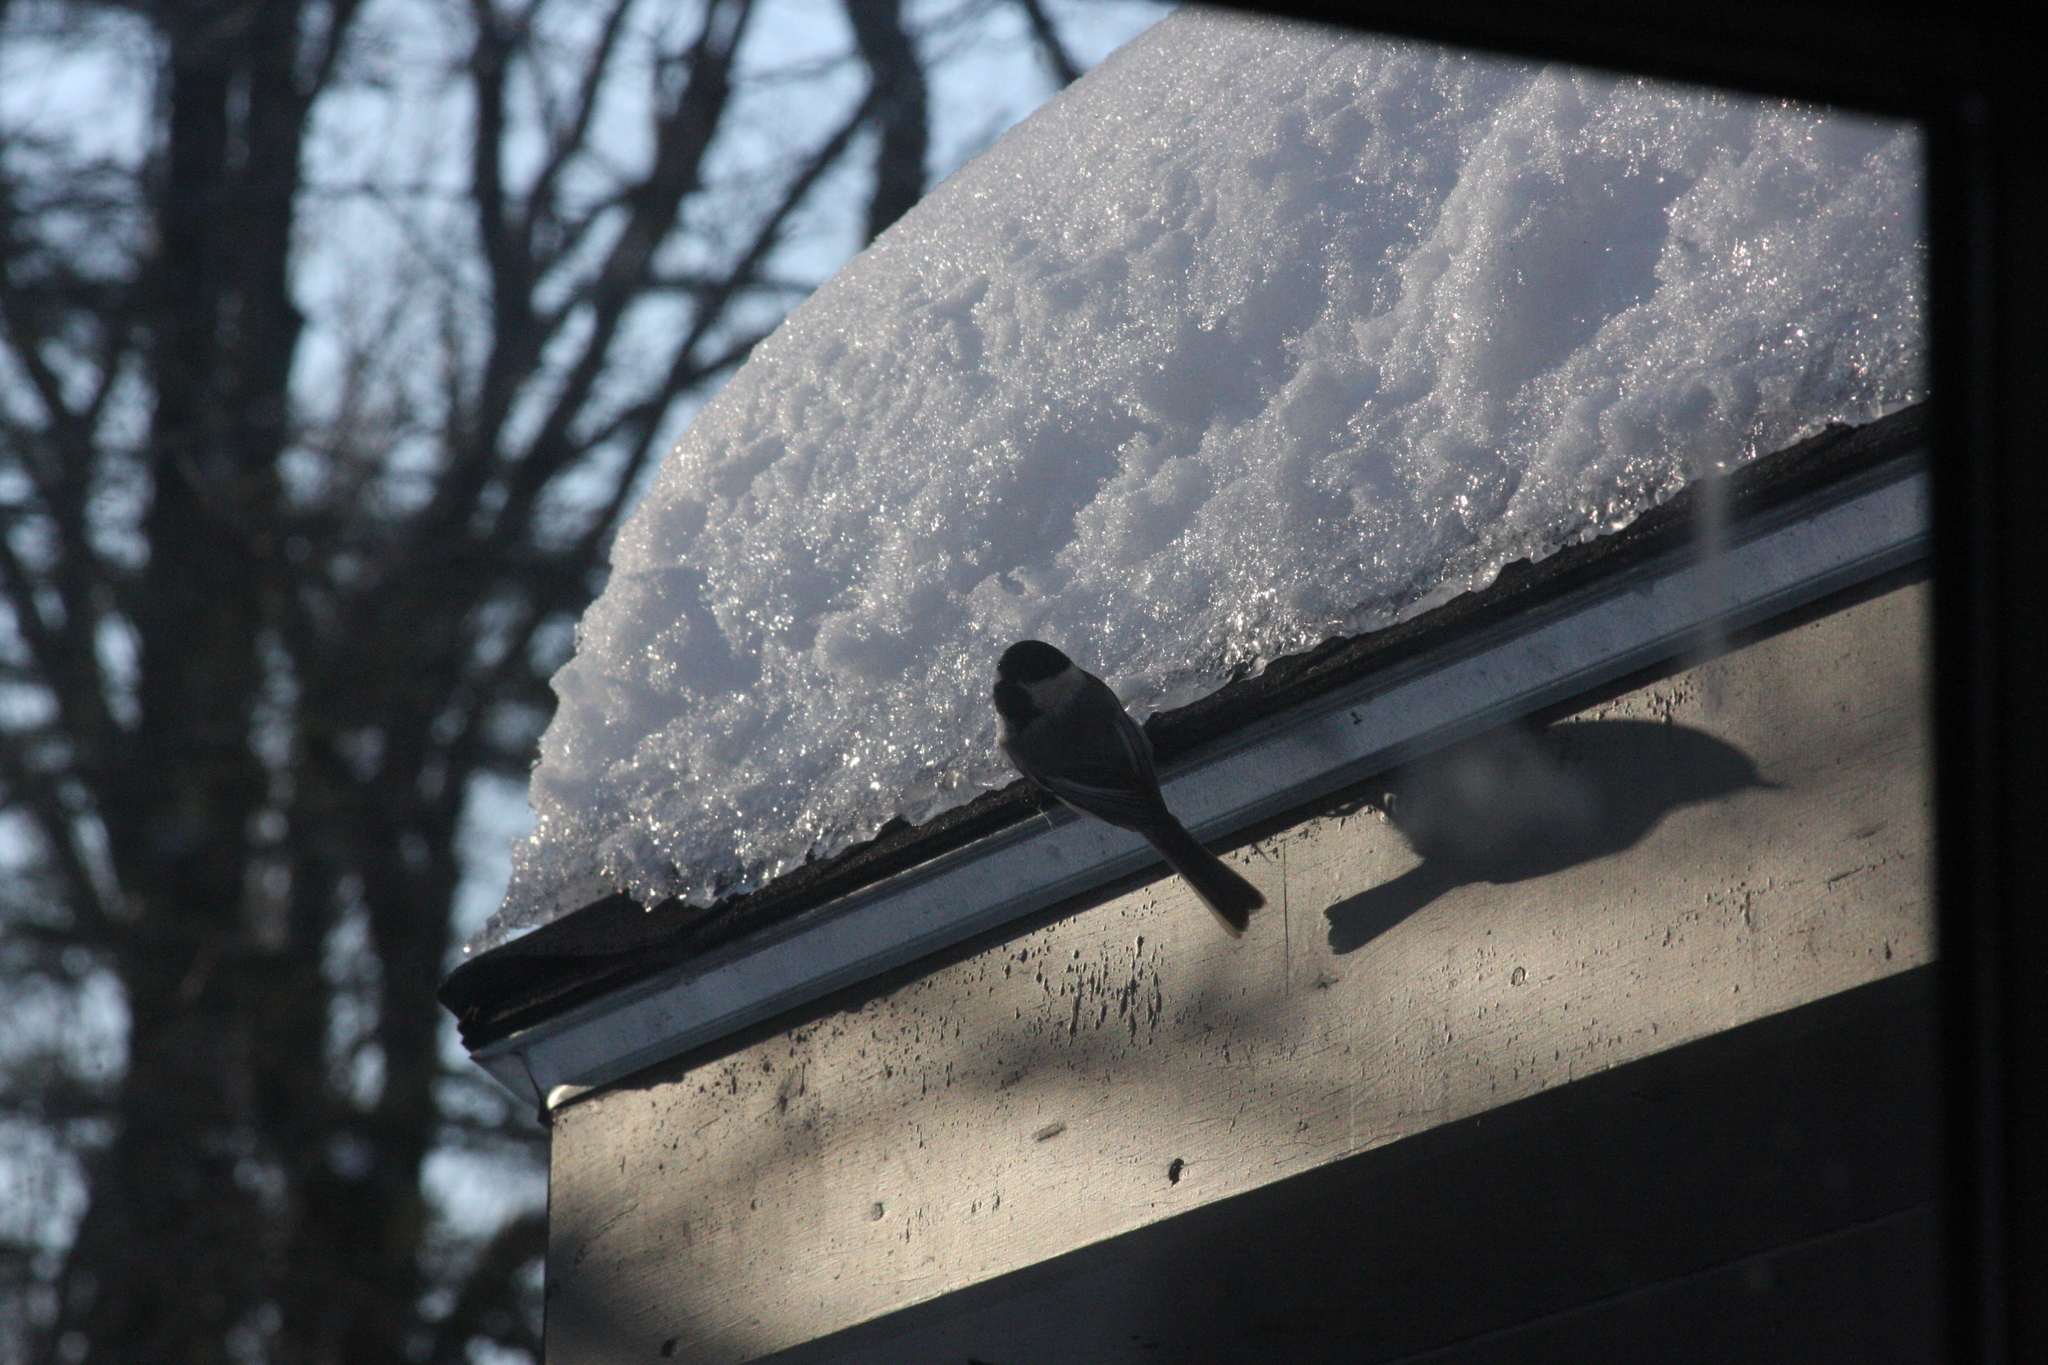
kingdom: Animalia
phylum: Chordata
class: Aves
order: Passeriformes
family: Paridae
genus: Poecile
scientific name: Poecile atricapillus
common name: Black-capped chickadee
